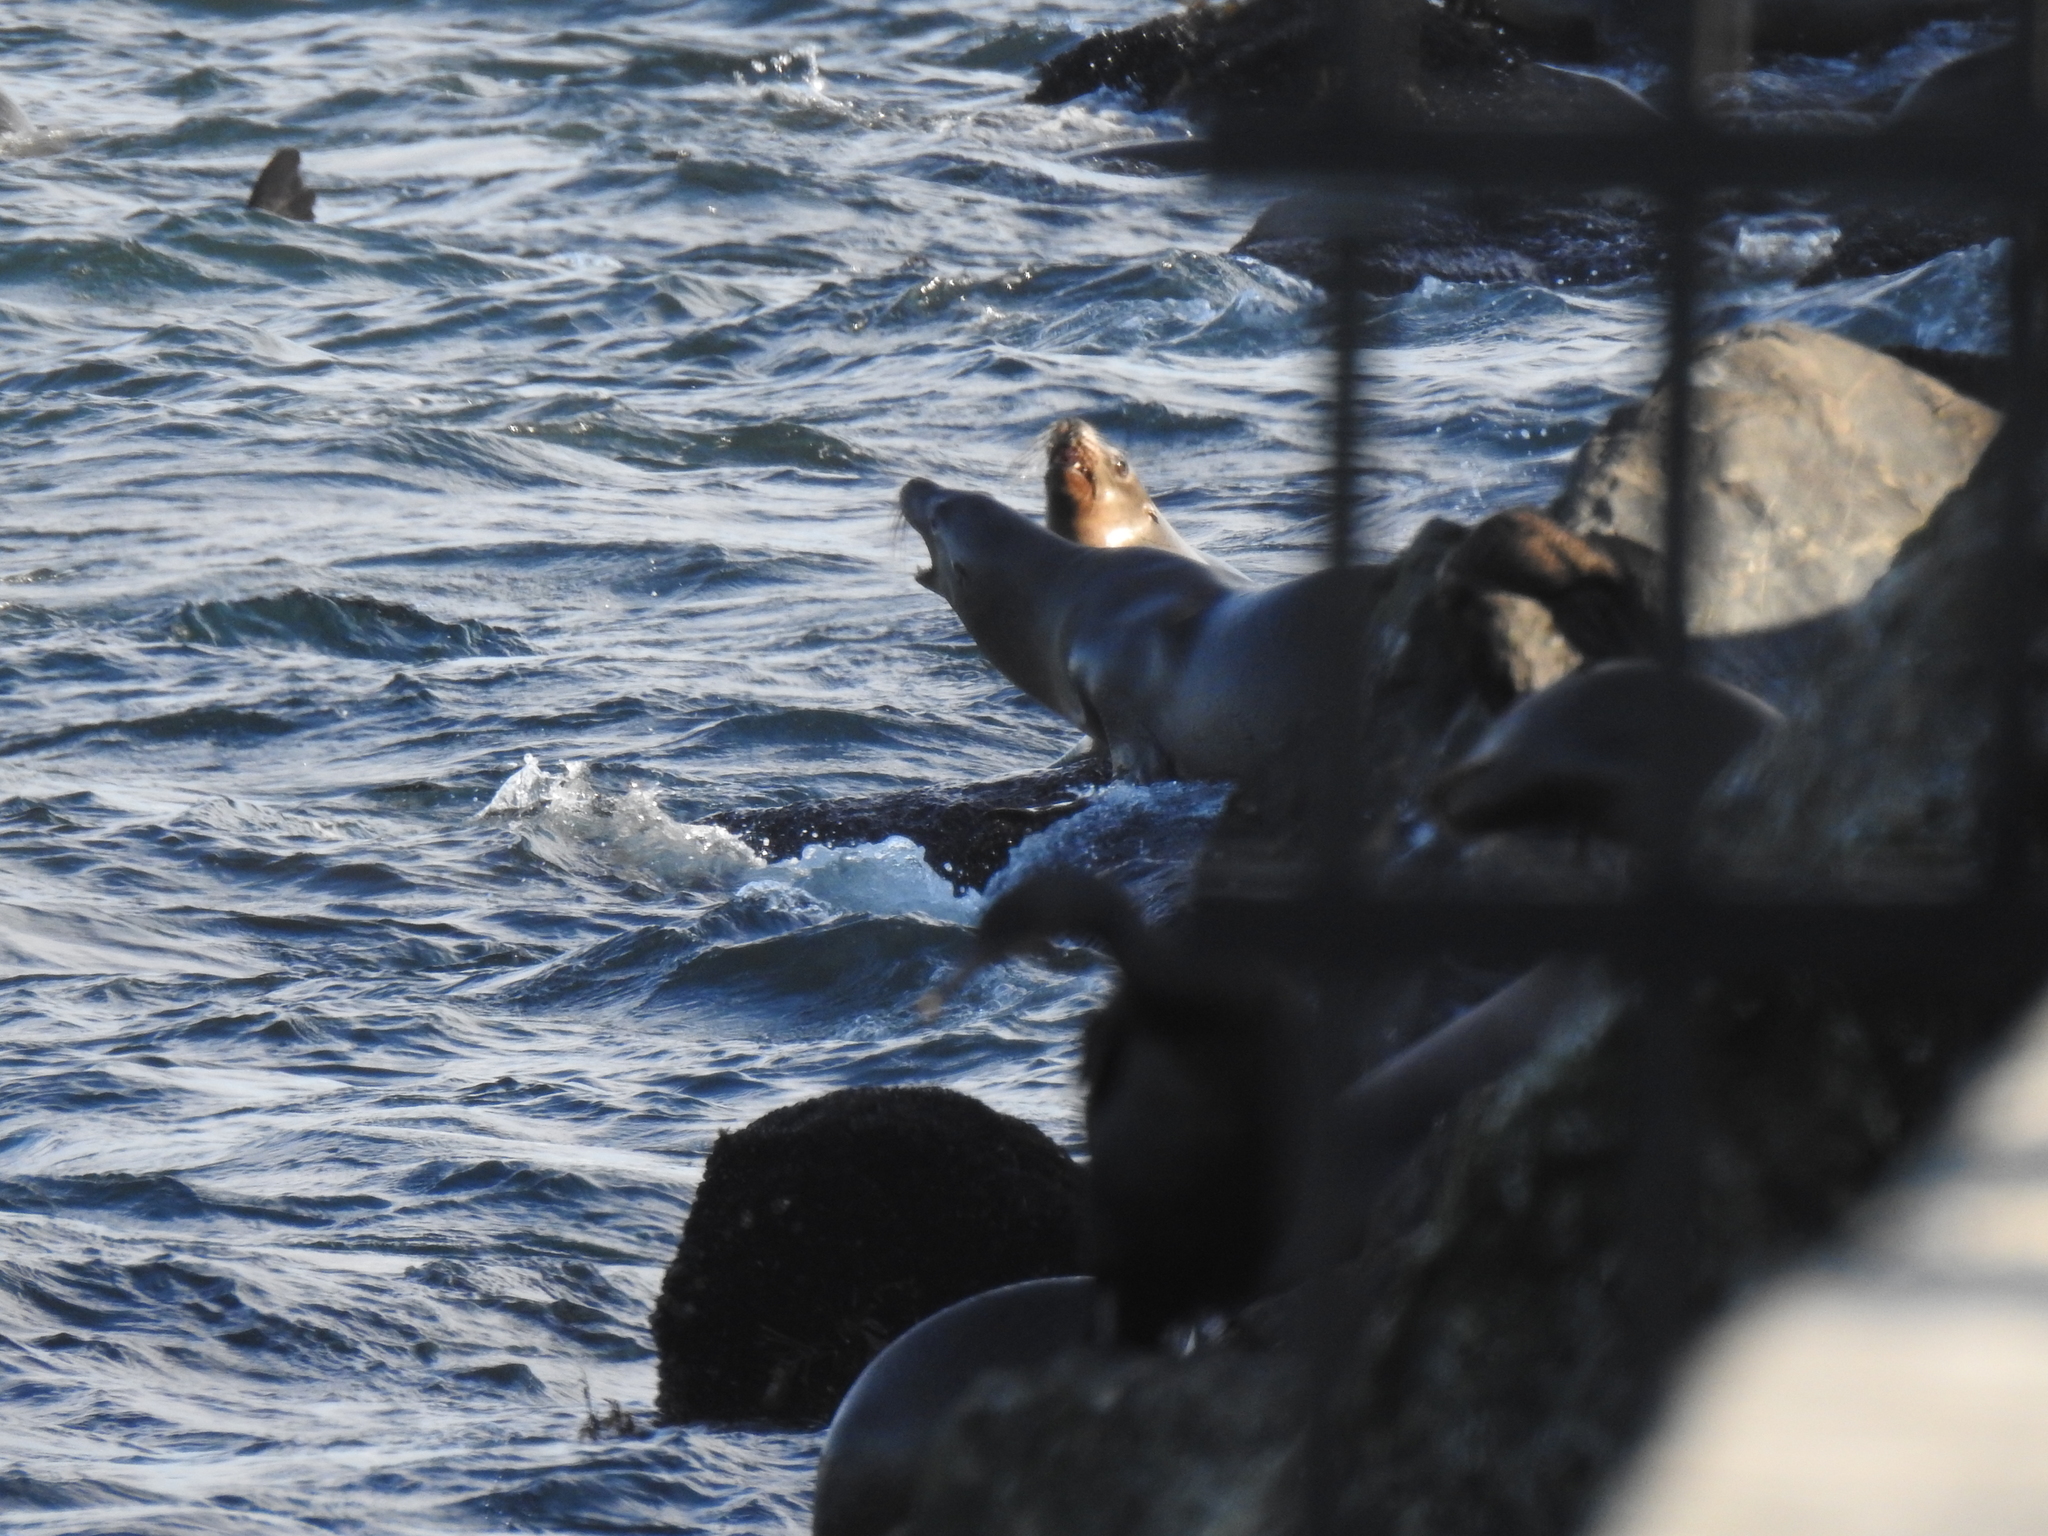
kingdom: Animalia
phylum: Chordata
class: Mammalia
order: Carnivora
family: Otariidae
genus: Zalophus
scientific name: Zalophus californianus
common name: California sea lion
